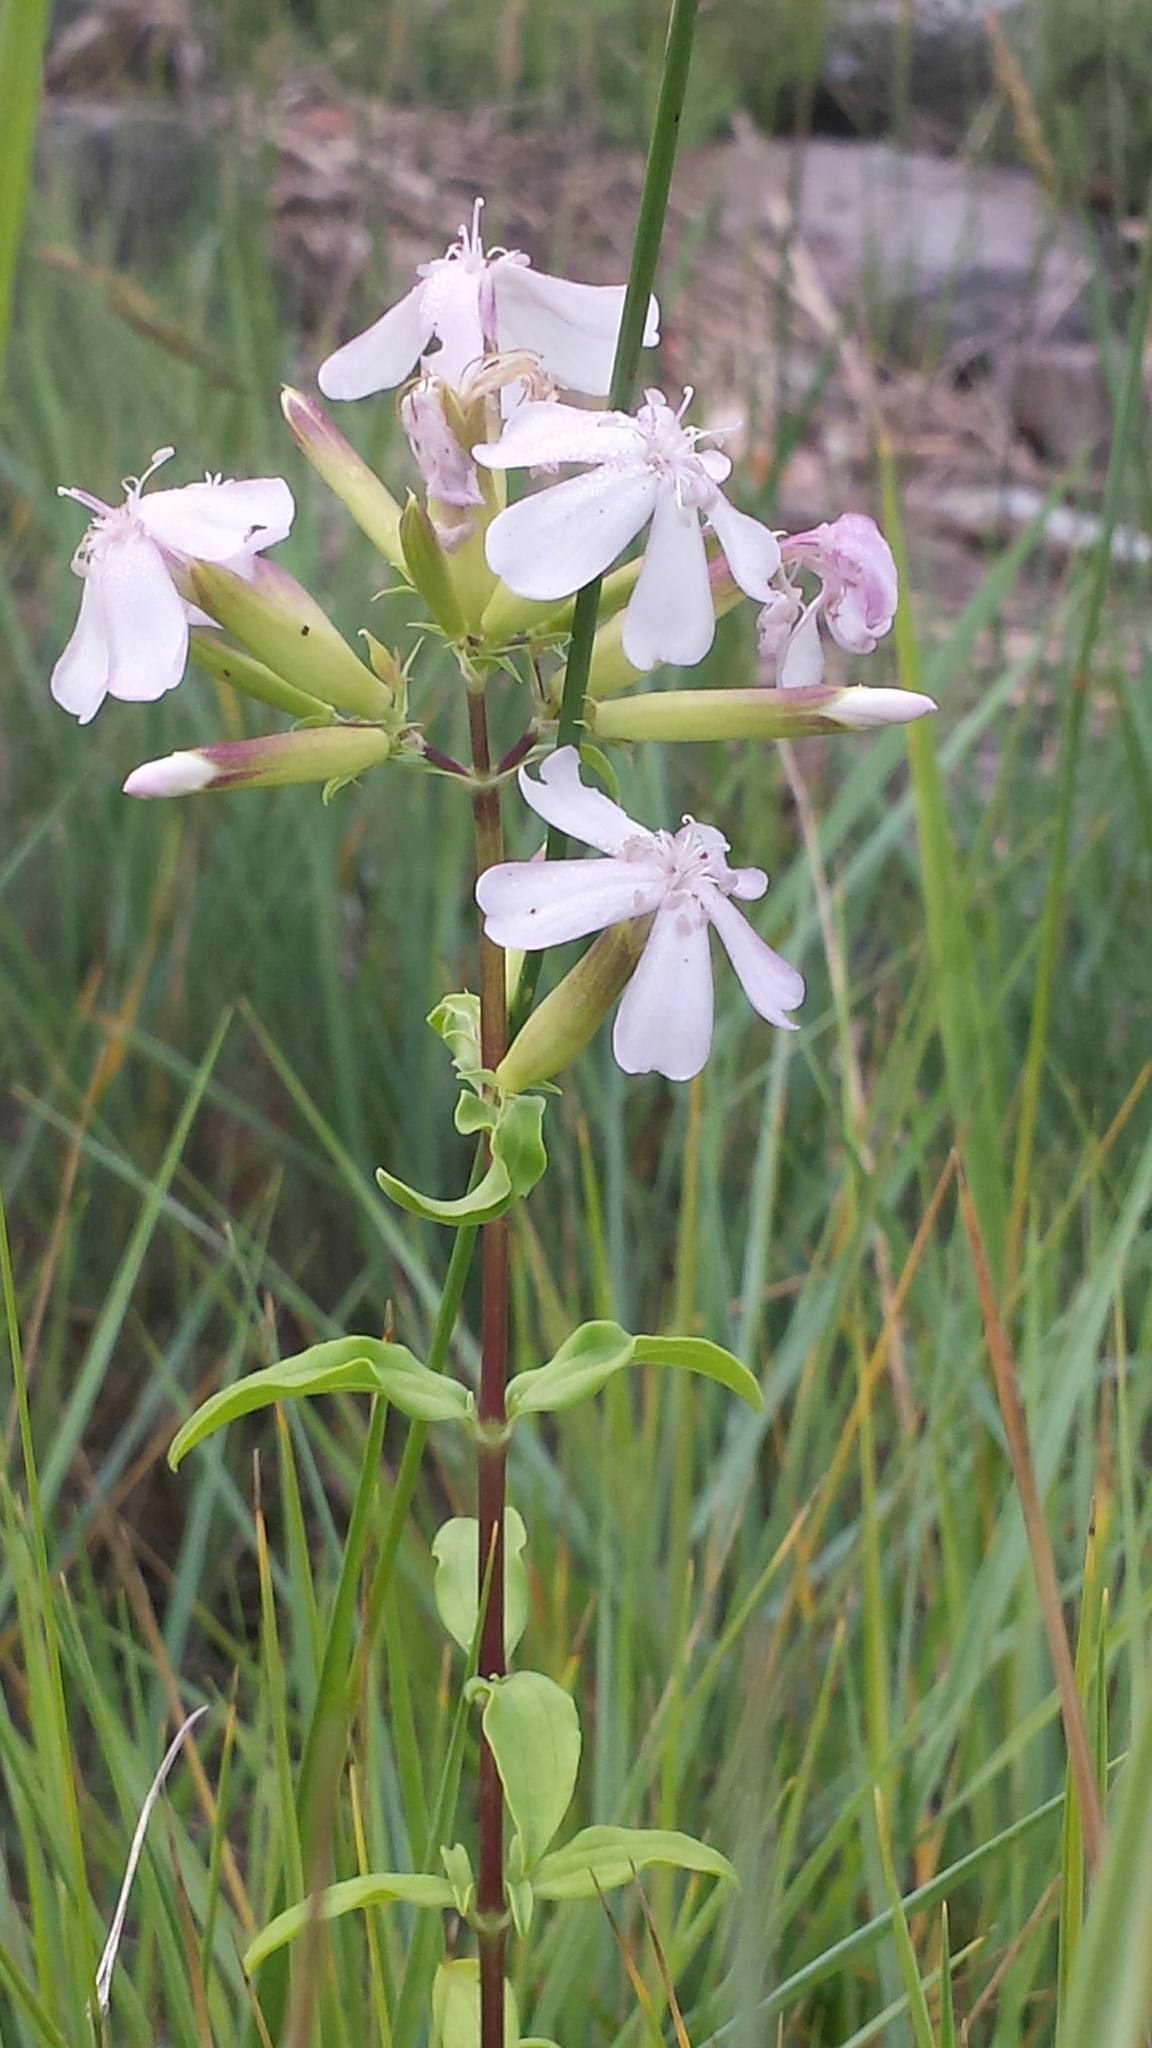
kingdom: Plantae
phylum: Tracheophyta
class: Magnoliopsida
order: Caryophyllales
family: Caryophyllaceae
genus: Saponaria
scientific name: Saponaria officinalis
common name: Soapwort
